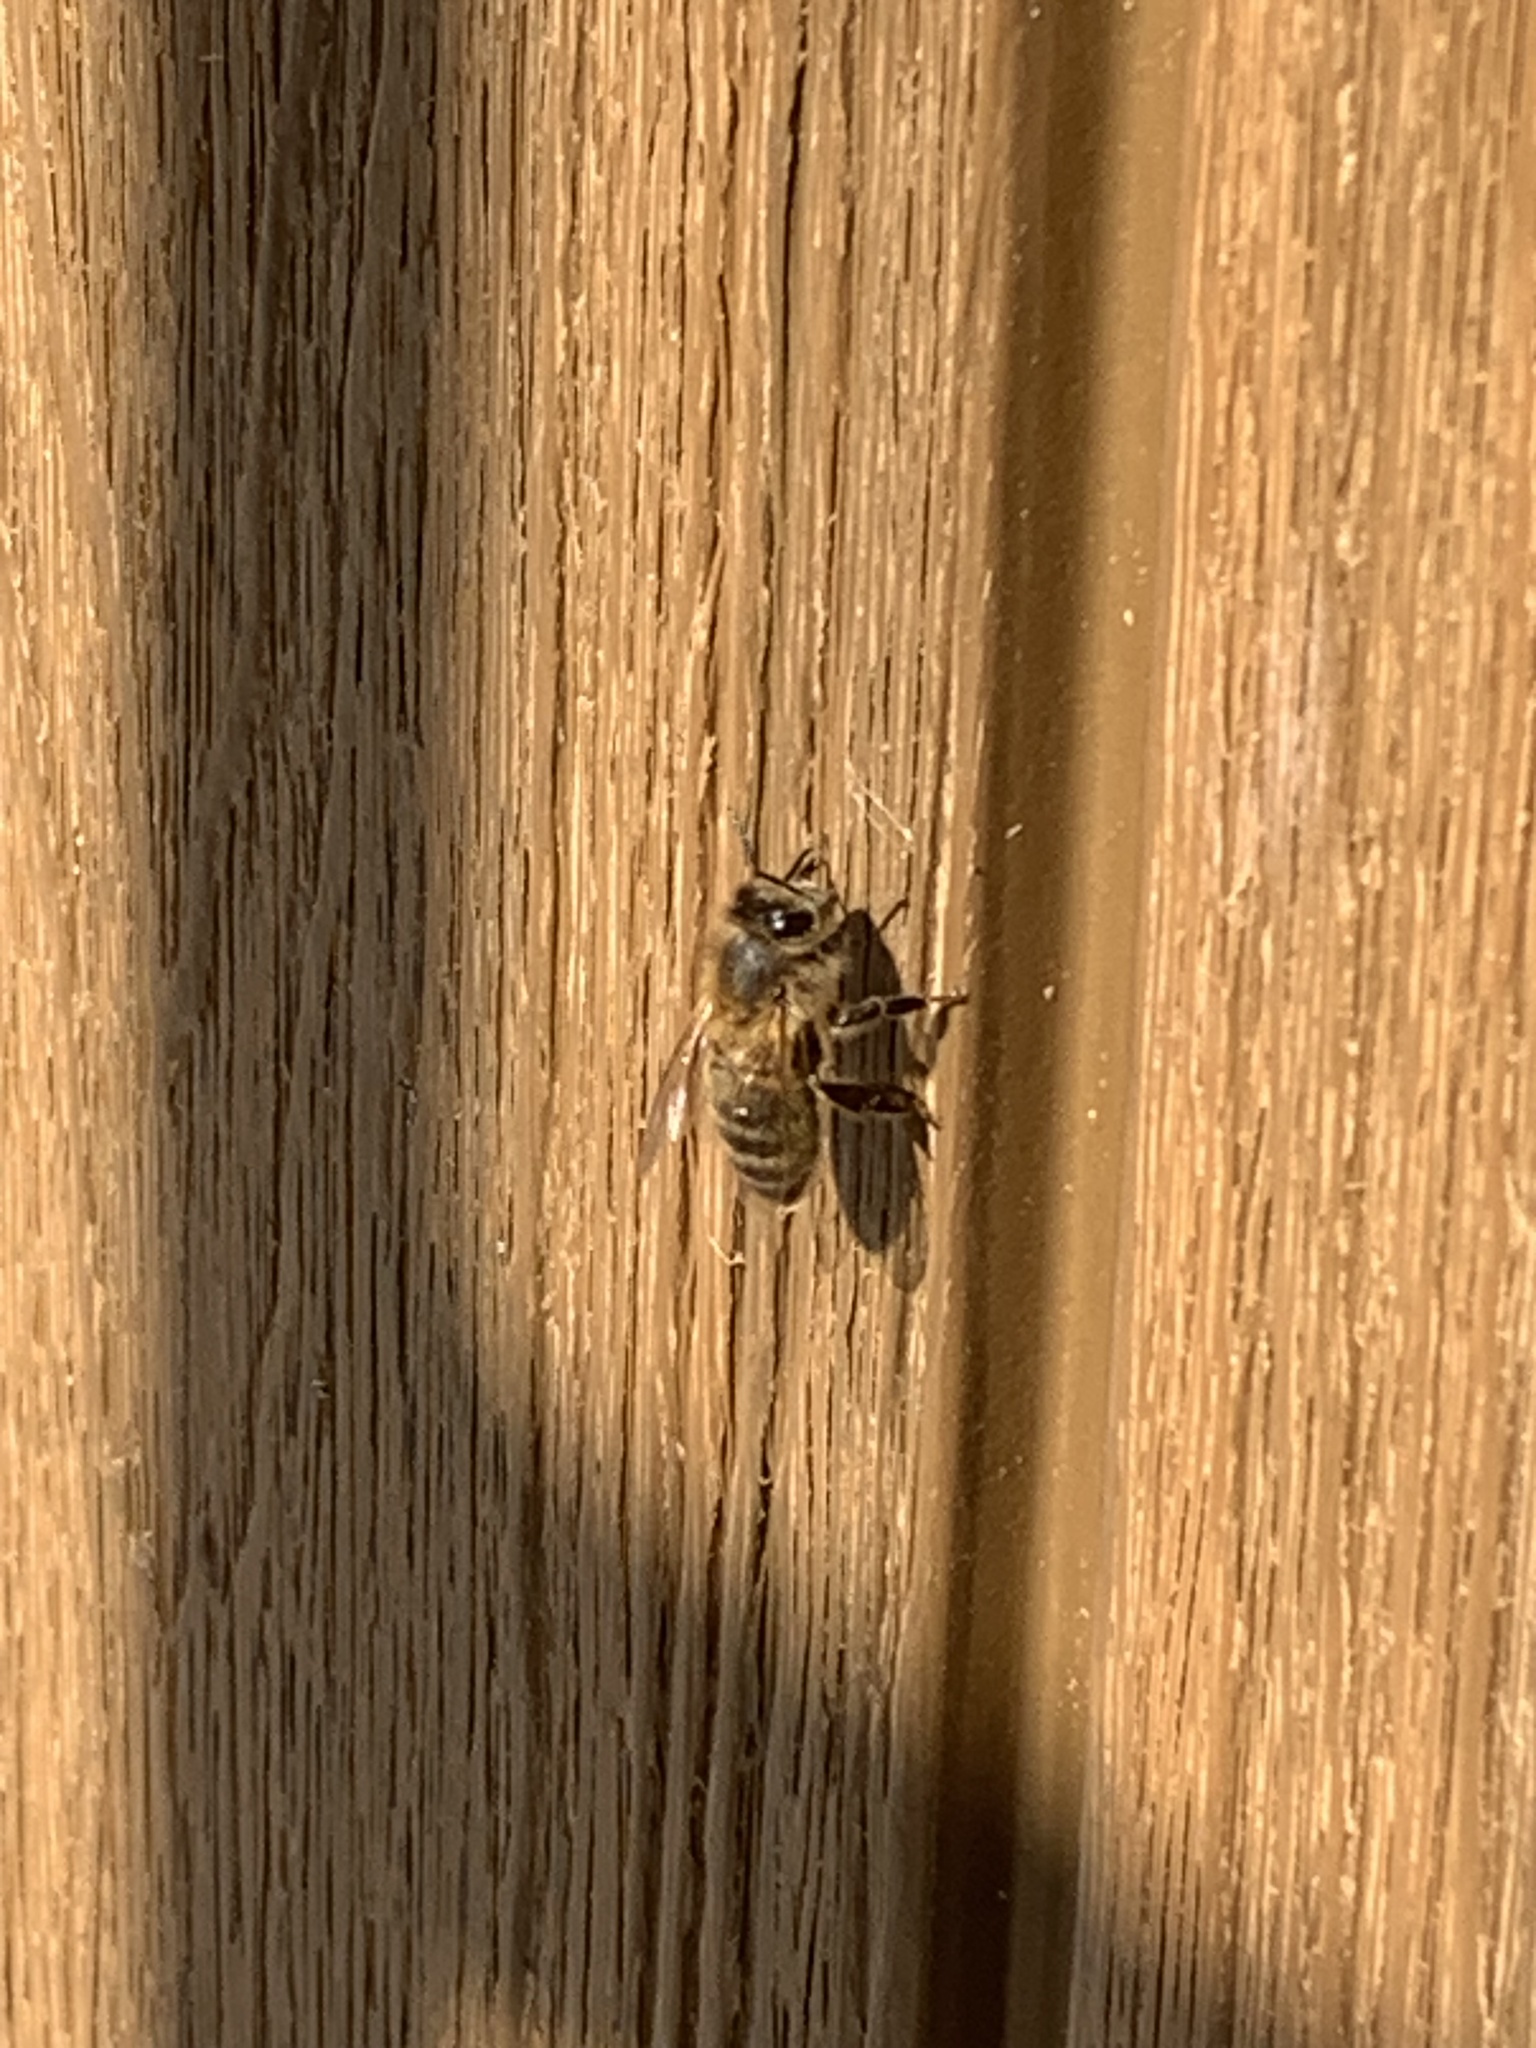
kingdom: Animalia
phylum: Arthropoda
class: Insecta
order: Hymenoptera
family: Apidae
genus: Apis
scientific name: Apis mellifera
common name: Honey bee
